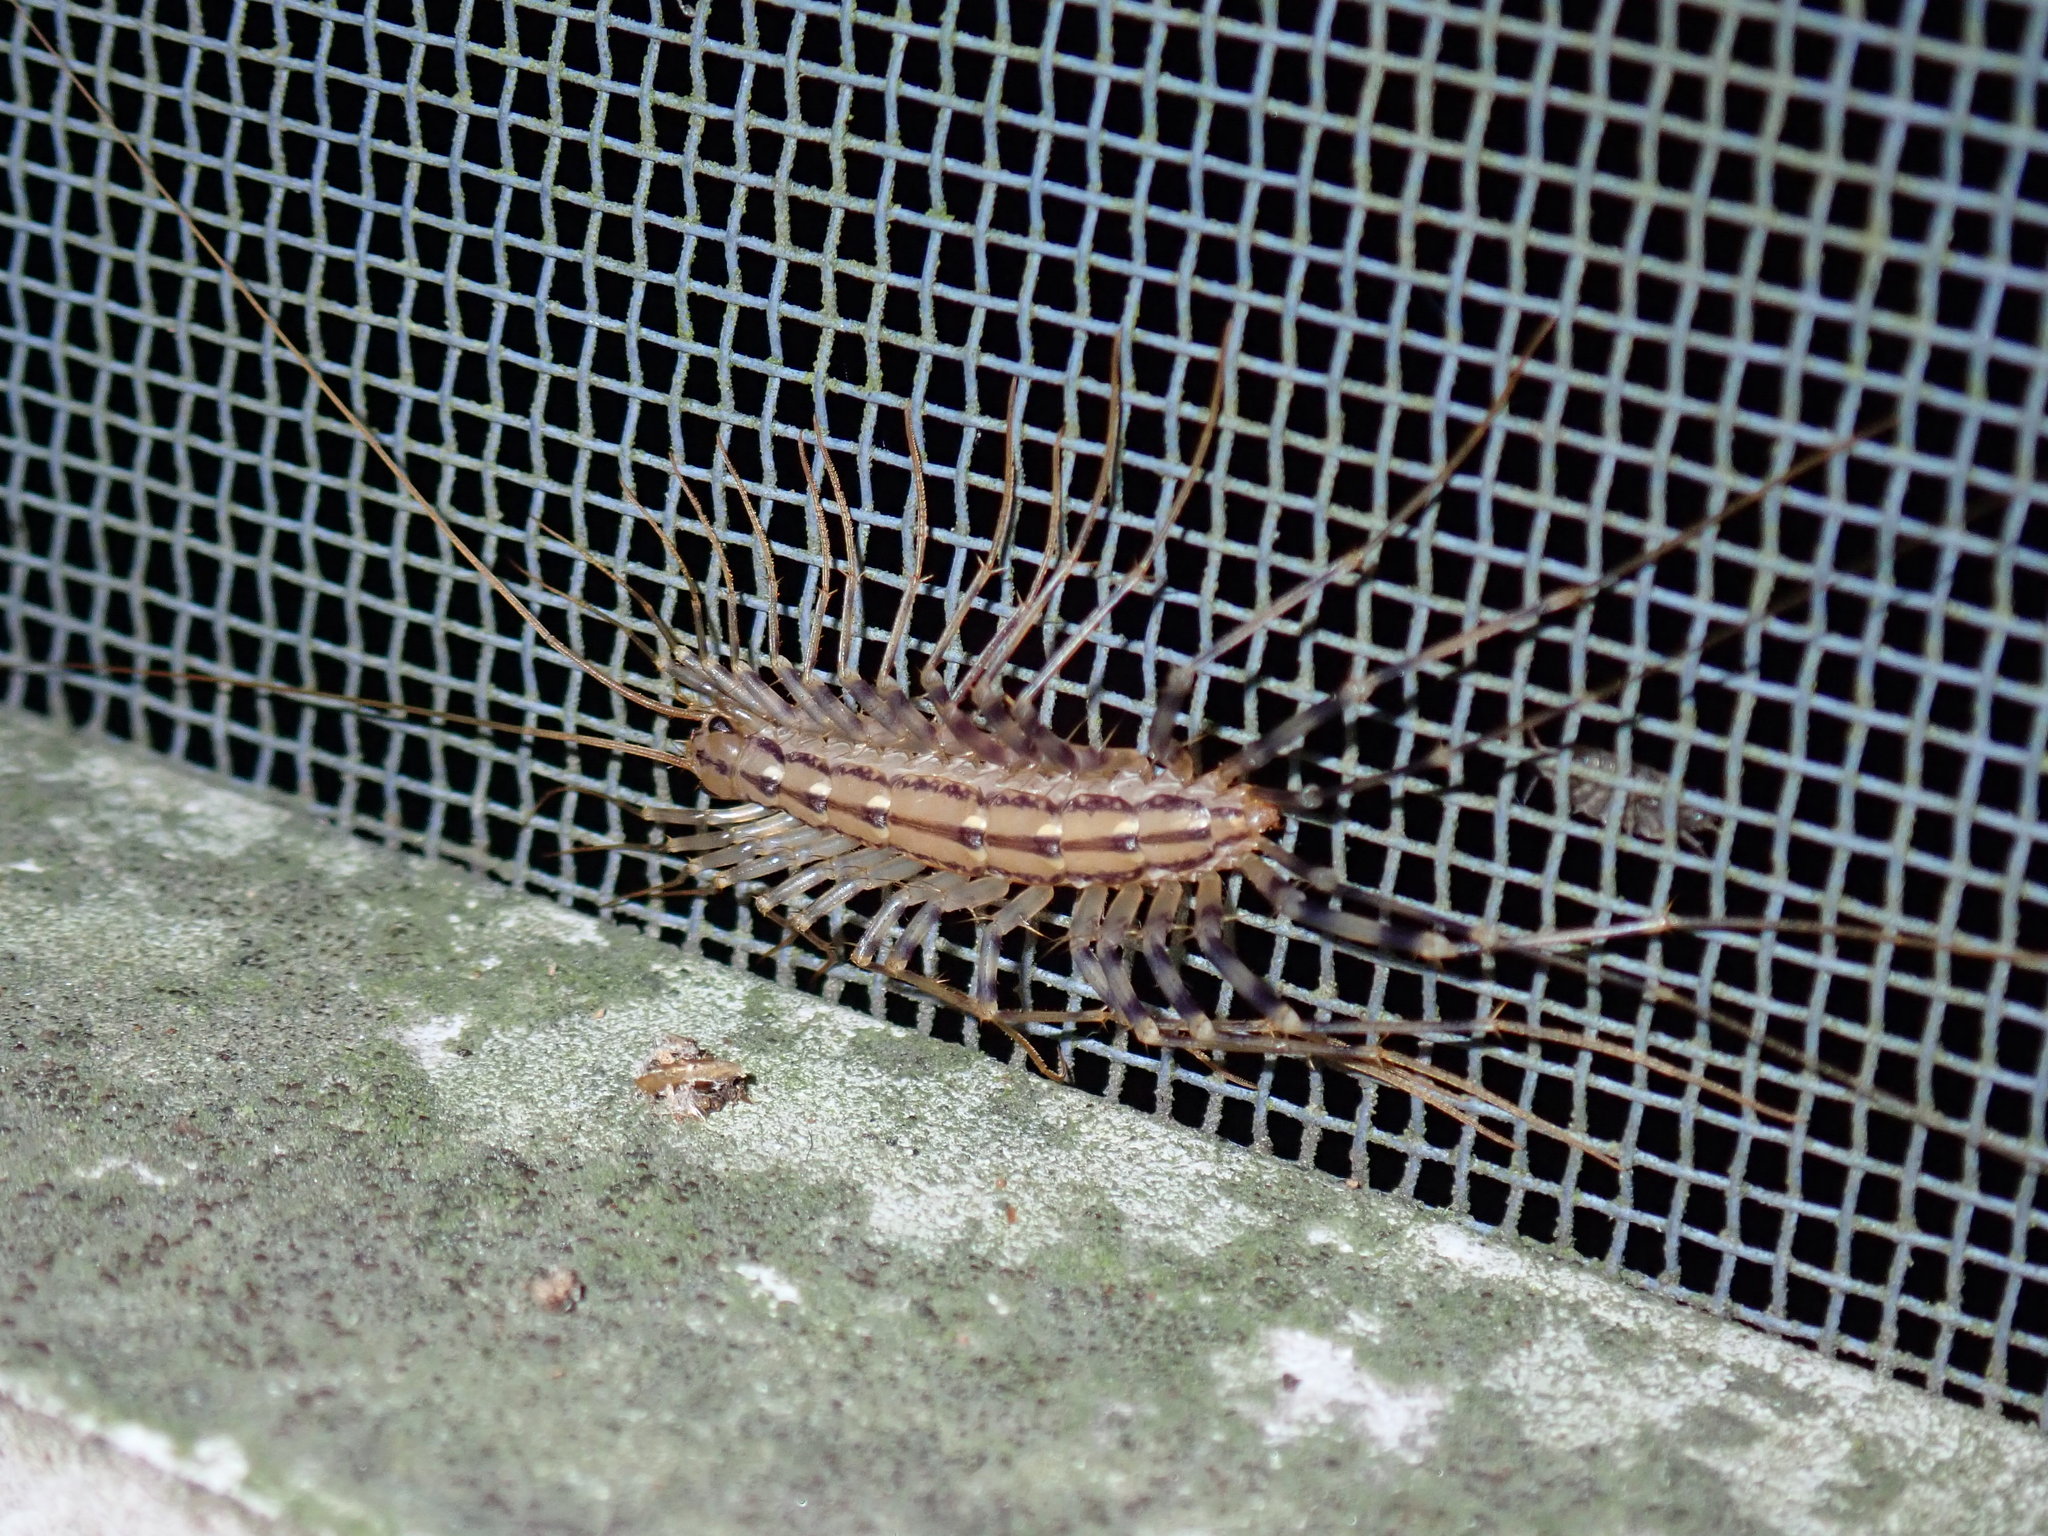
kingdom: Animalia
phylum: Arthropoda
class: Chilopoda
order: Scutigeromorpha
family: Scutigeridae
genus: Scutigera
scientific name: Scutigera coleoptrata
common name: House centipede
